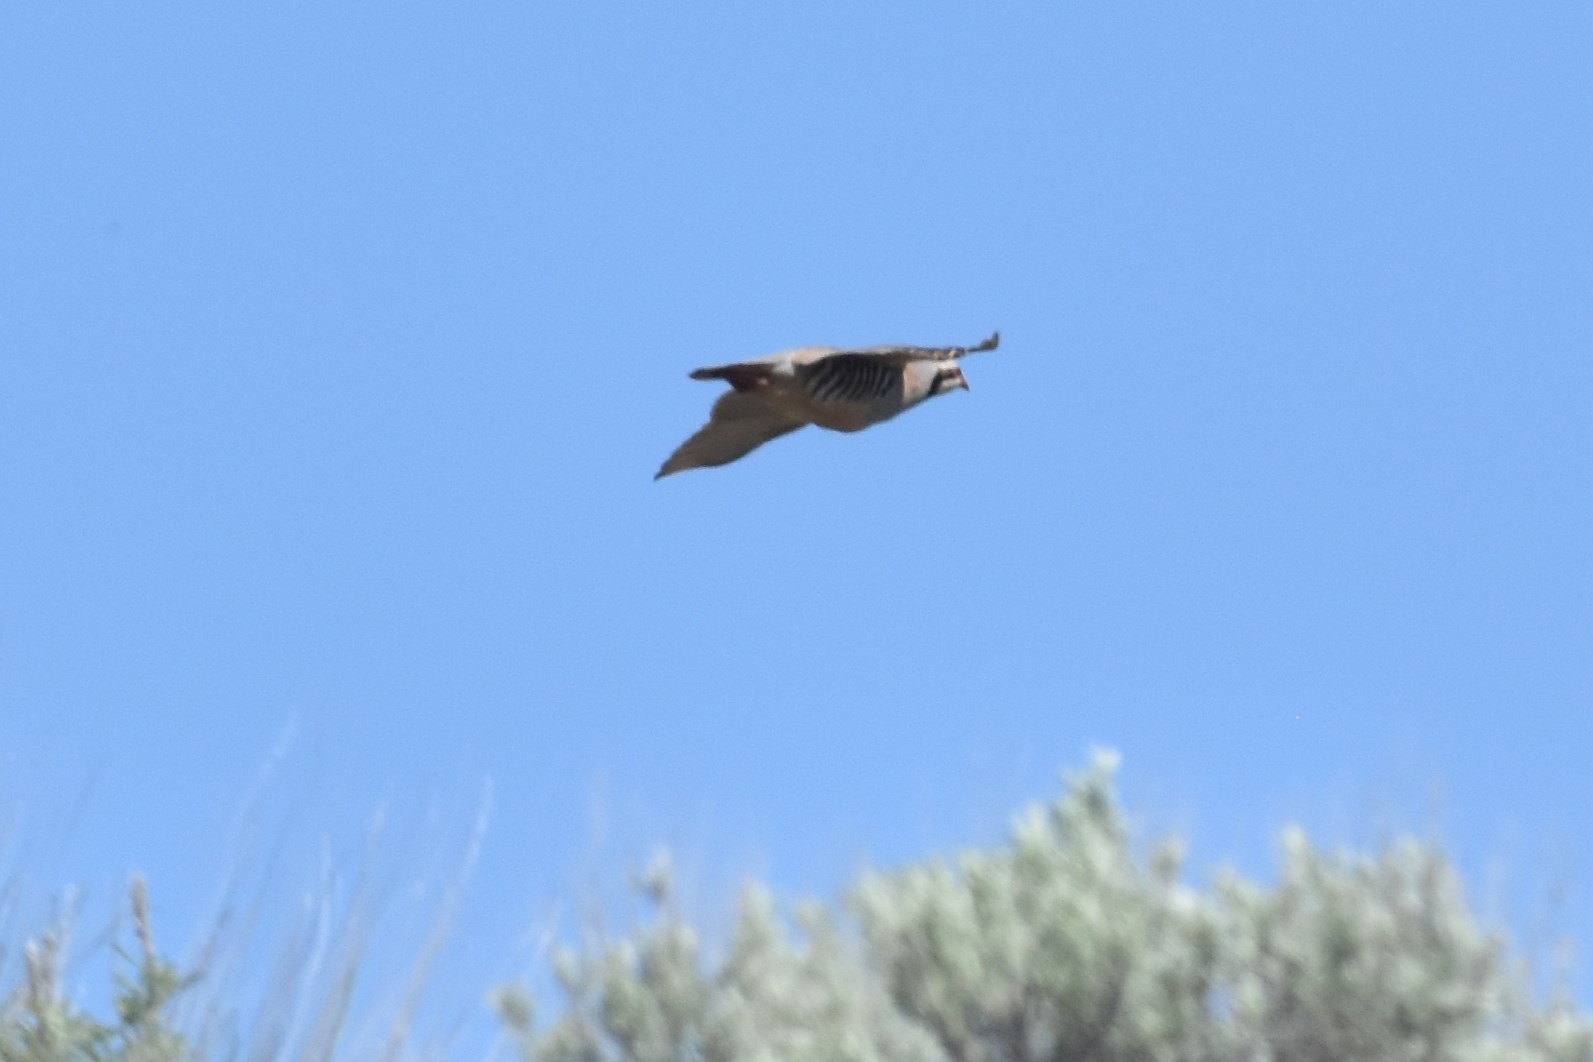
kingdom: Animalia
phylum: Chordata
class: Aves
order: Galliformes
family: Phasianidae
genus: Alectoris
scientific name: Alectoris chukar
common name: Chukar
